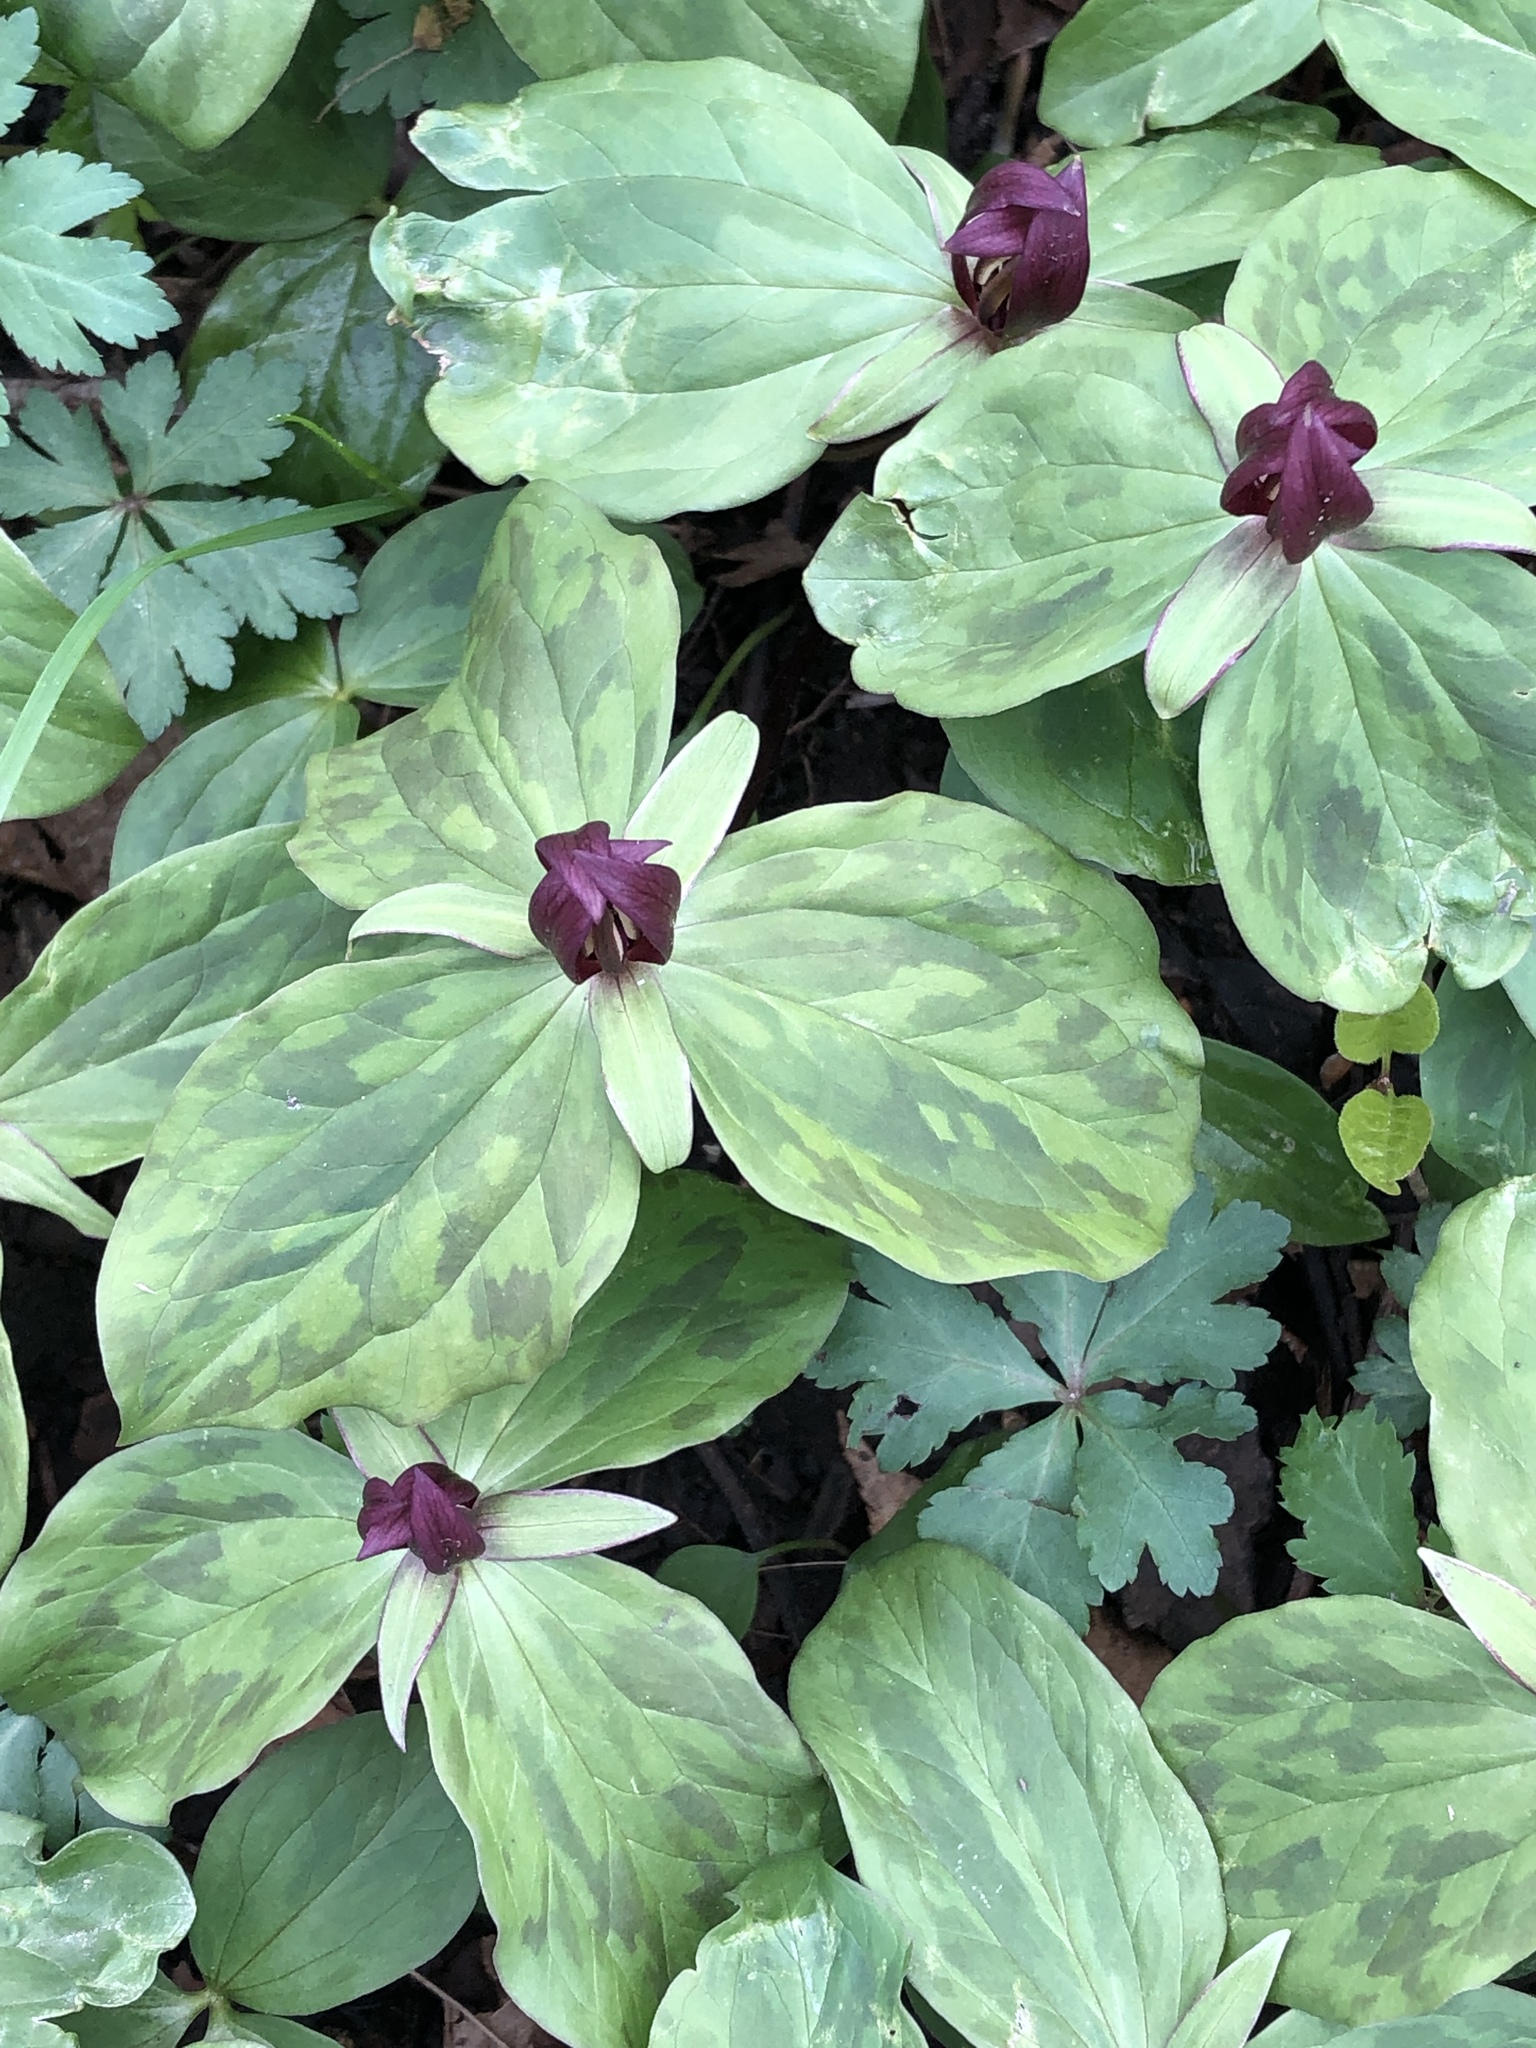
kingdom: Plantae
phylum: Tracheophyta
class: Liliopsida
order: Liliales
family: Melanthiaceae
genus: Trillium
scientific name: Trillium sessile
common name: Sessile trillium
